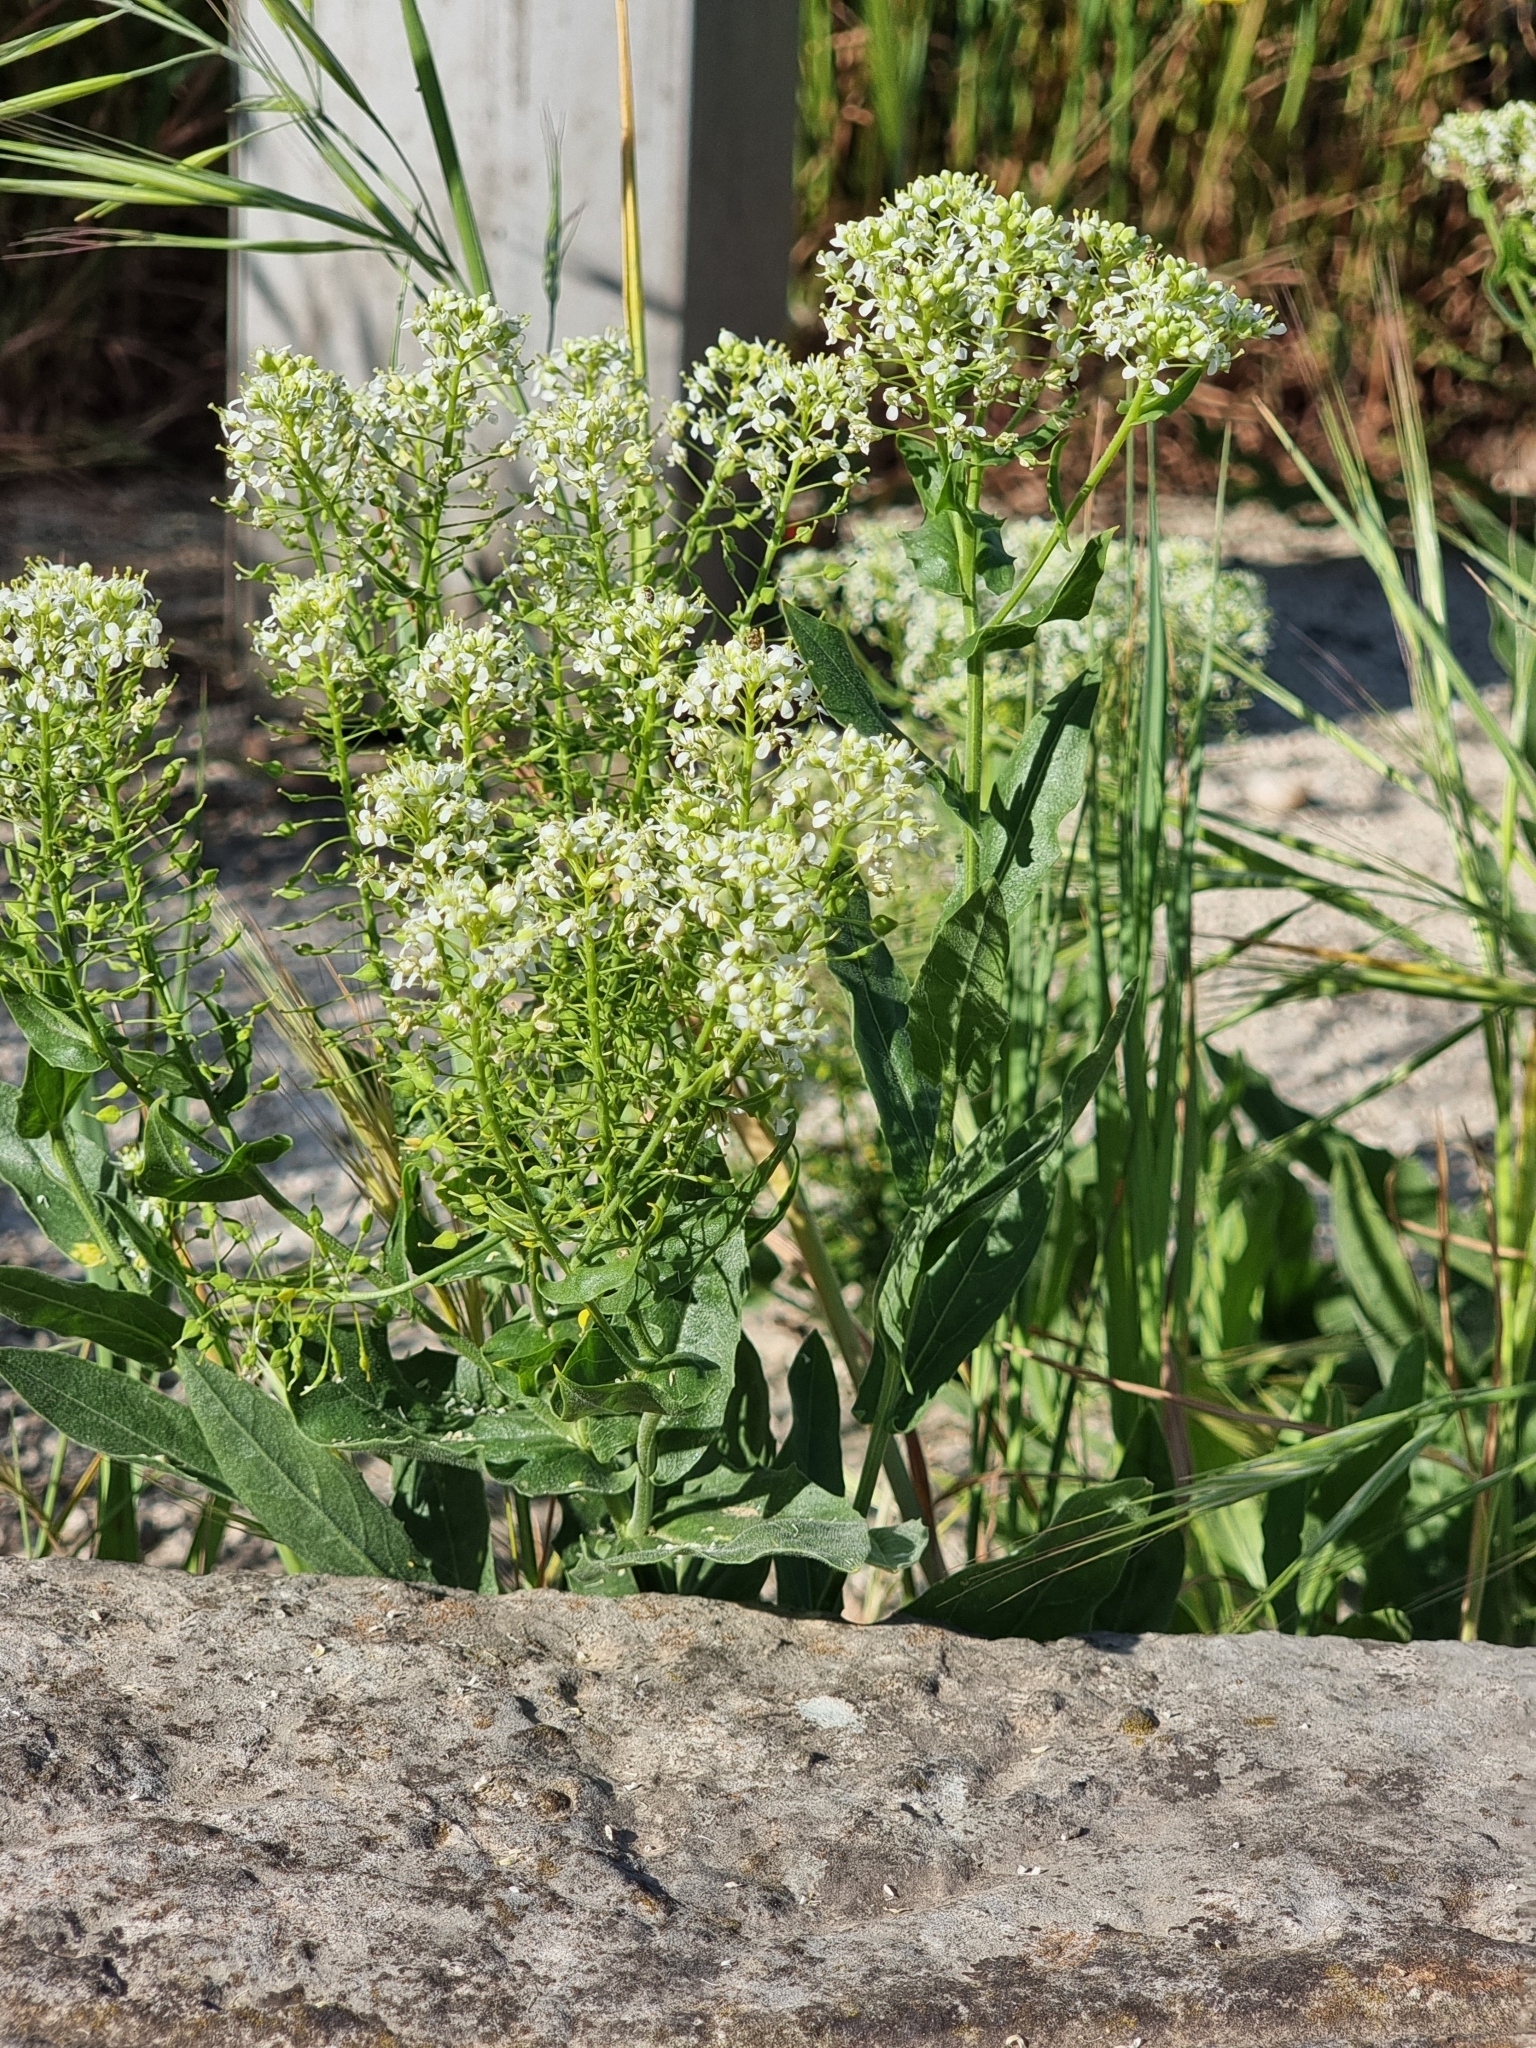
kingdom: Plantae
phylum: Tracheophyta
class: Magnoliopsida
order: Brassicales
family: Brassicaceae
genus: Lepidium
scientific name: Lepidium draba
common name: Hoary cress
